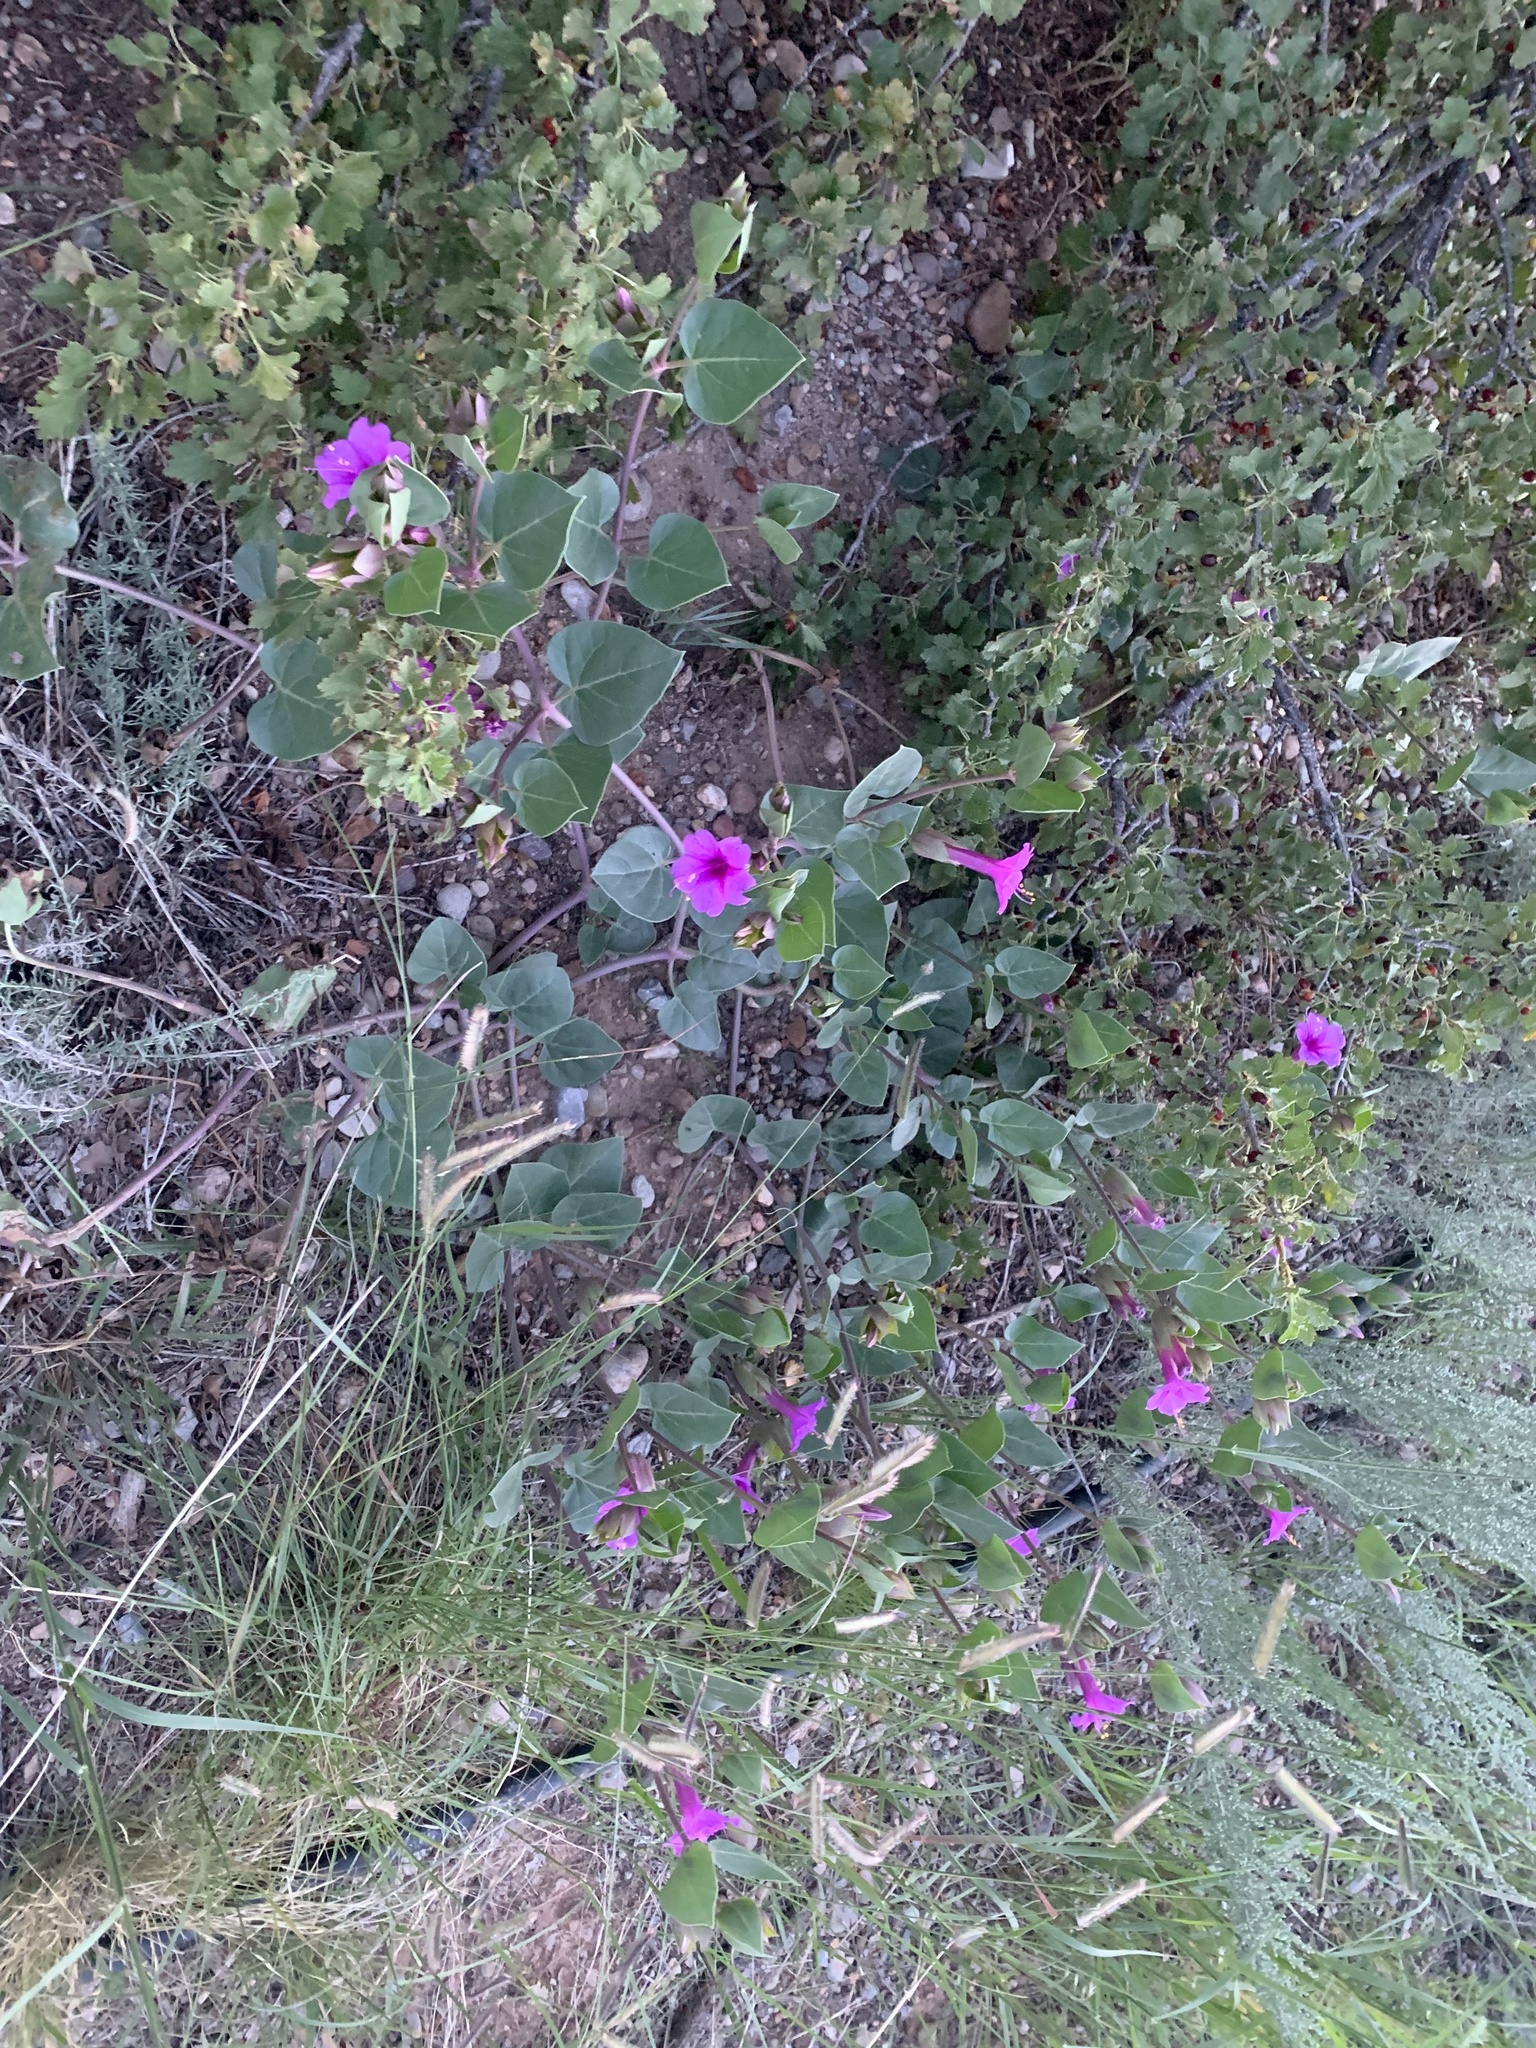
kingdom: Plantae
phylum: Tracheophyta
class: Magnoliopsida
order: Caryophyllales
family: Nyctaginaceae
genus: Mirabilis
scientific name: Mirabilis multiflora
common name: Froebel's four-o'clock
